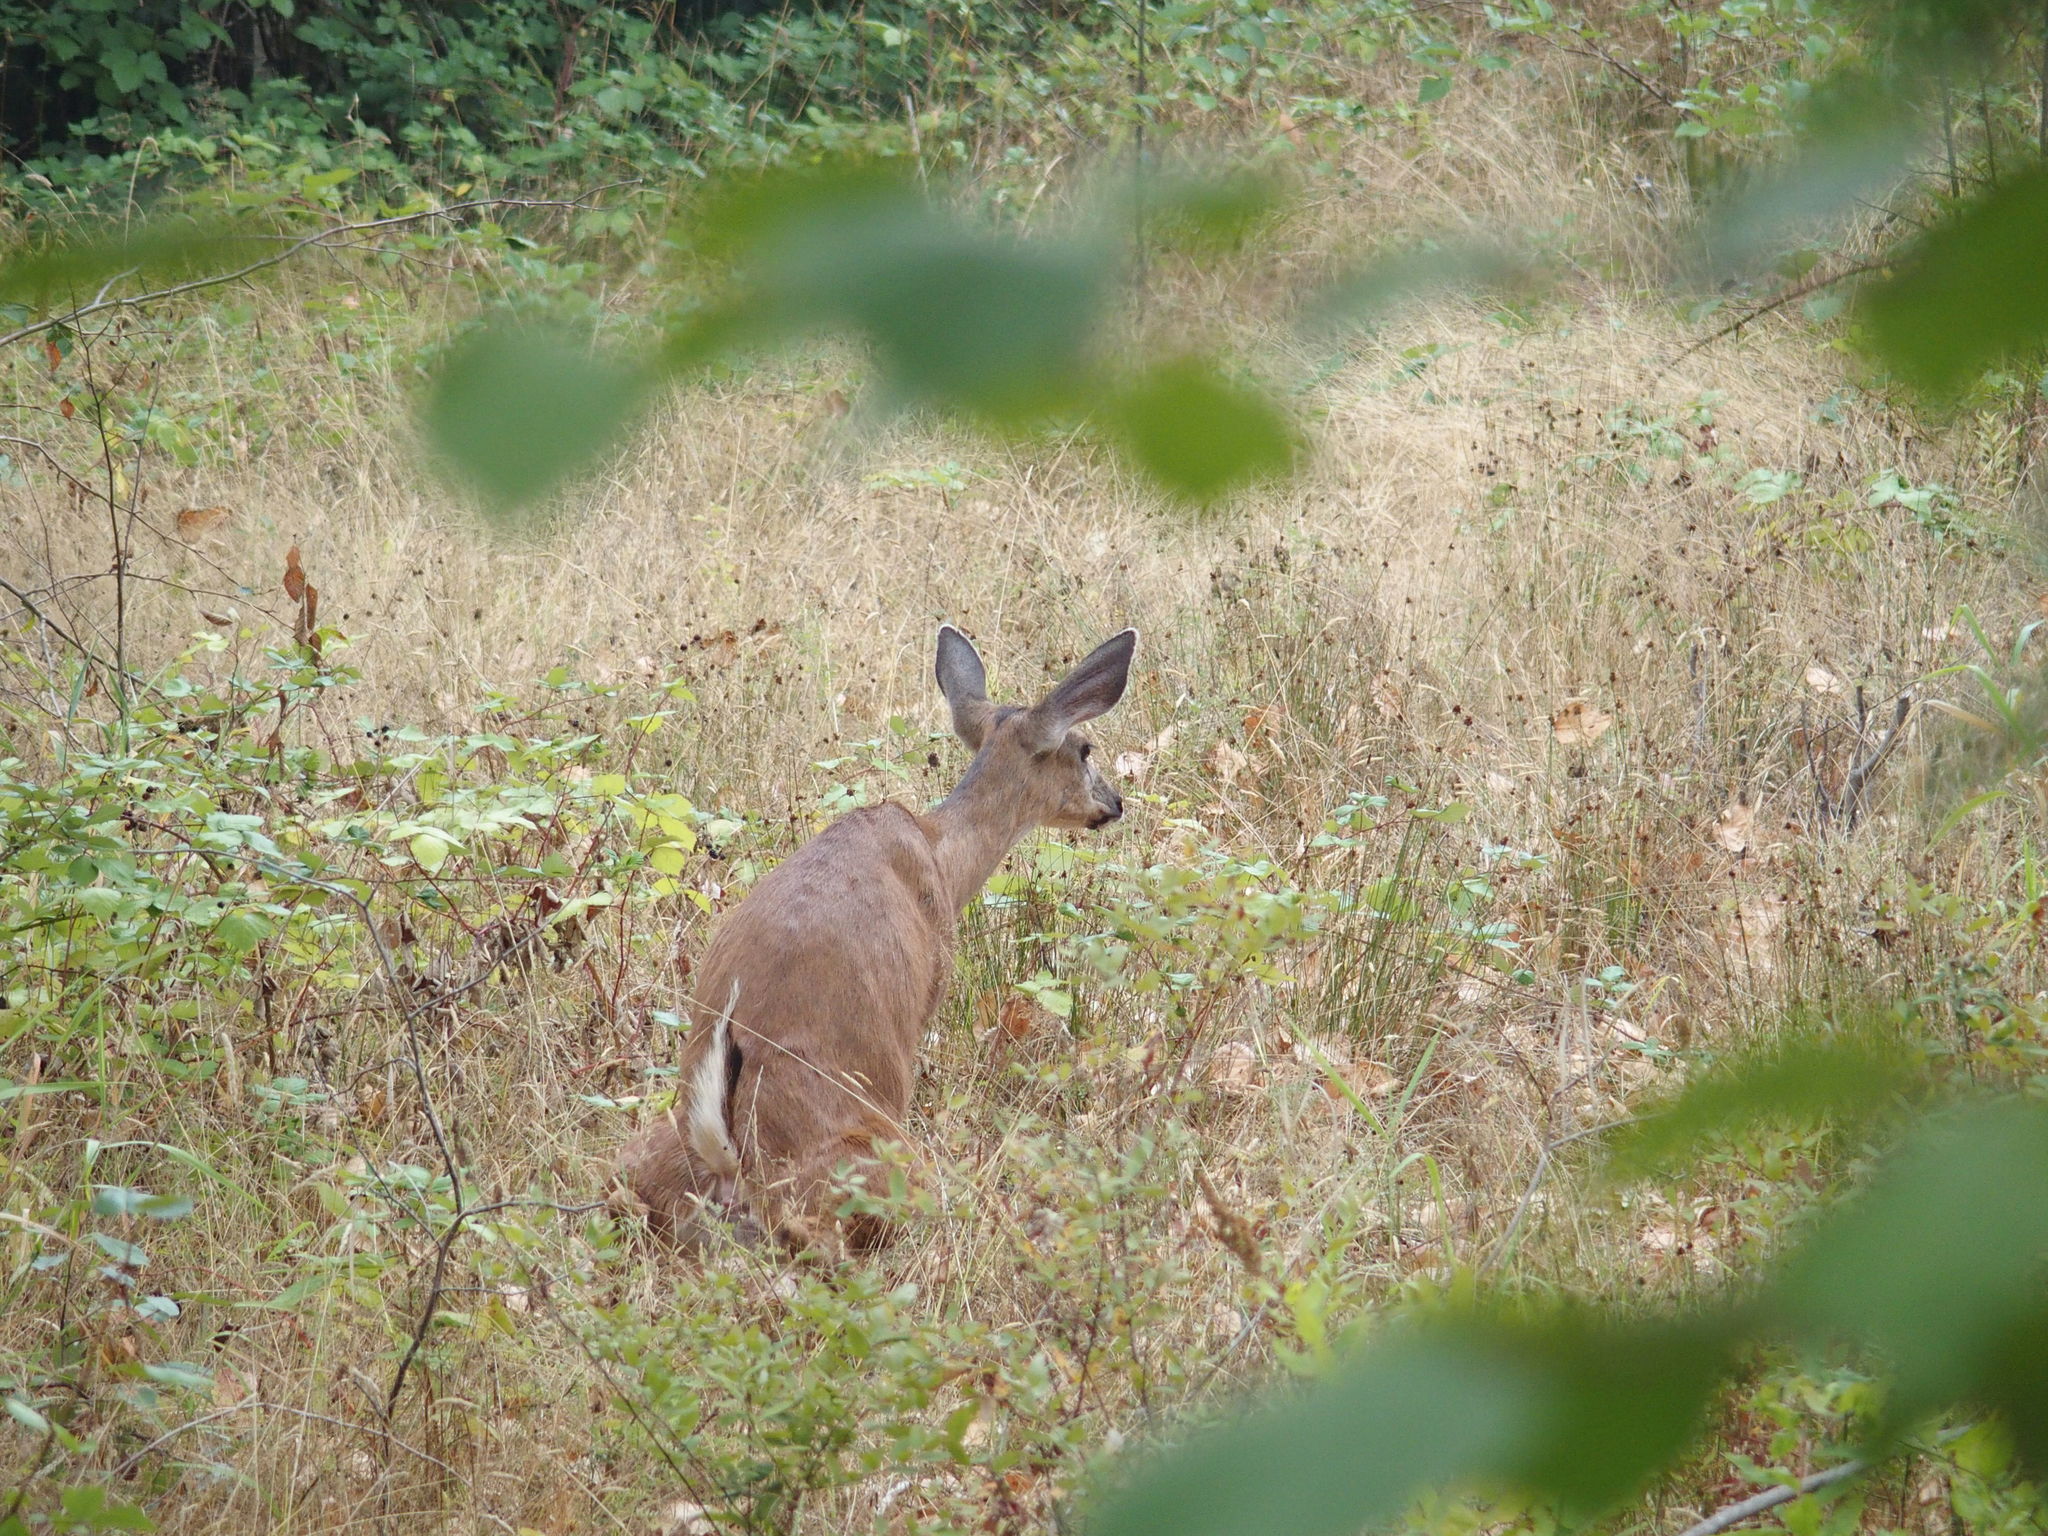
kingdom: Animalia
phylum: Chordata
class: Mammalia
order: Artiodactyla
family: Cervidae
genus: Odocoileus
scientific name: Odocoileus hemionus
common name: Mule deer
